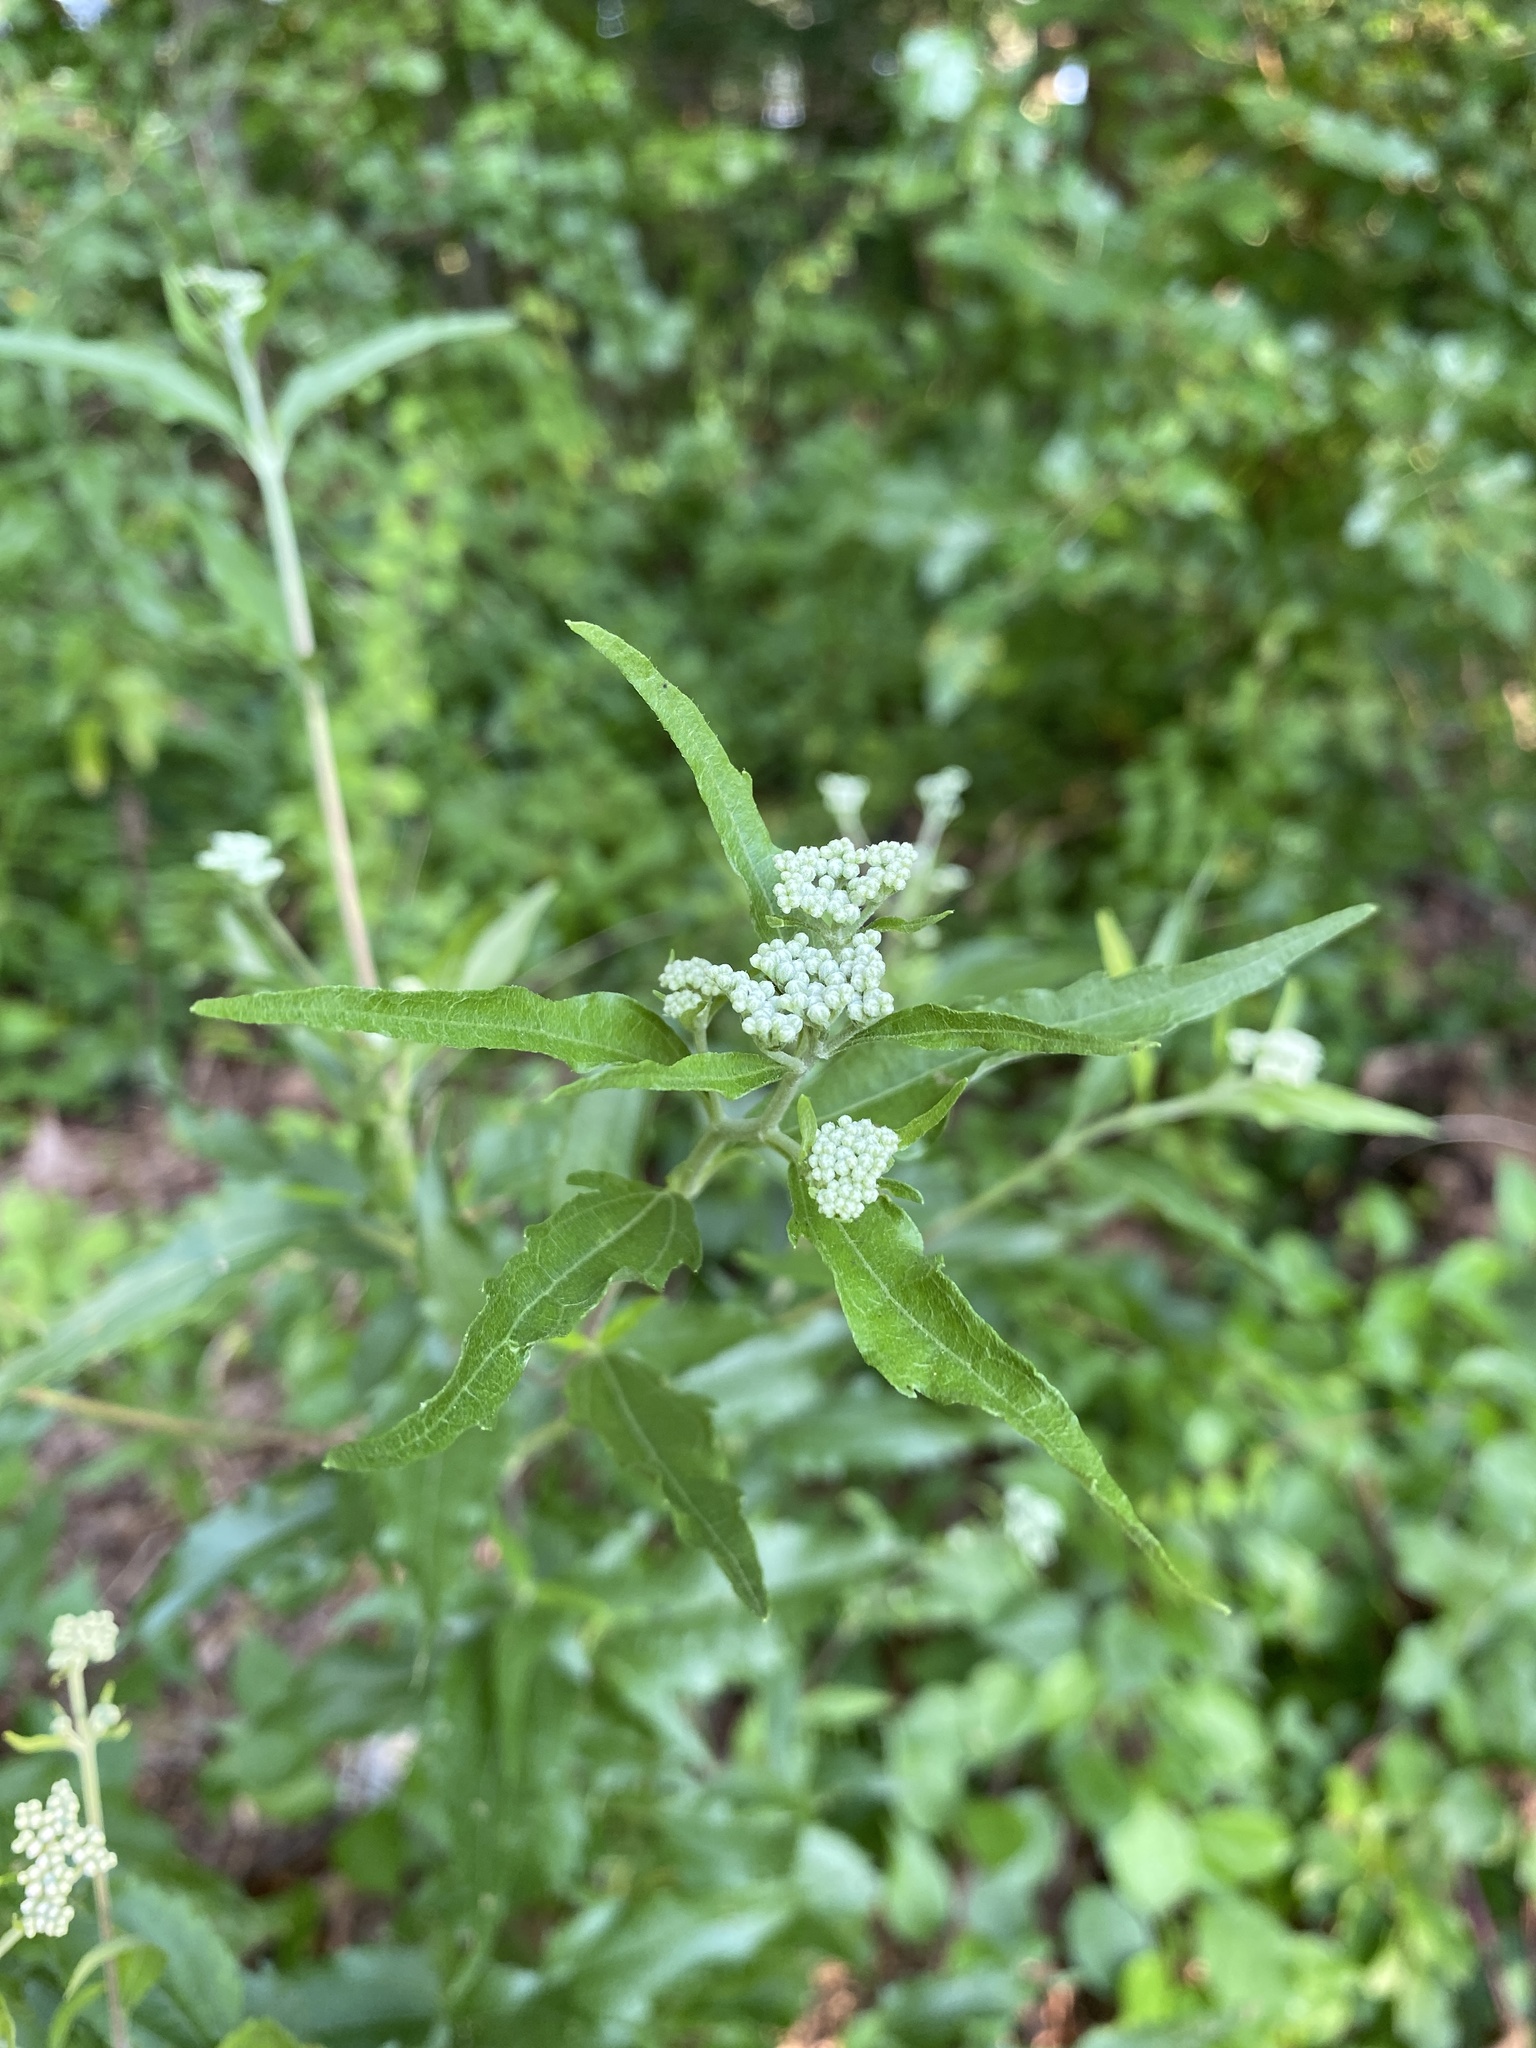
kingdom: Plantae
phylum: Tracheophyta
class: Magnoliopsida
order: Asterales
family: Asteraceae
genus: Eupatorium
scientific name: Eupatorium serotinum
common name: Late boneset
